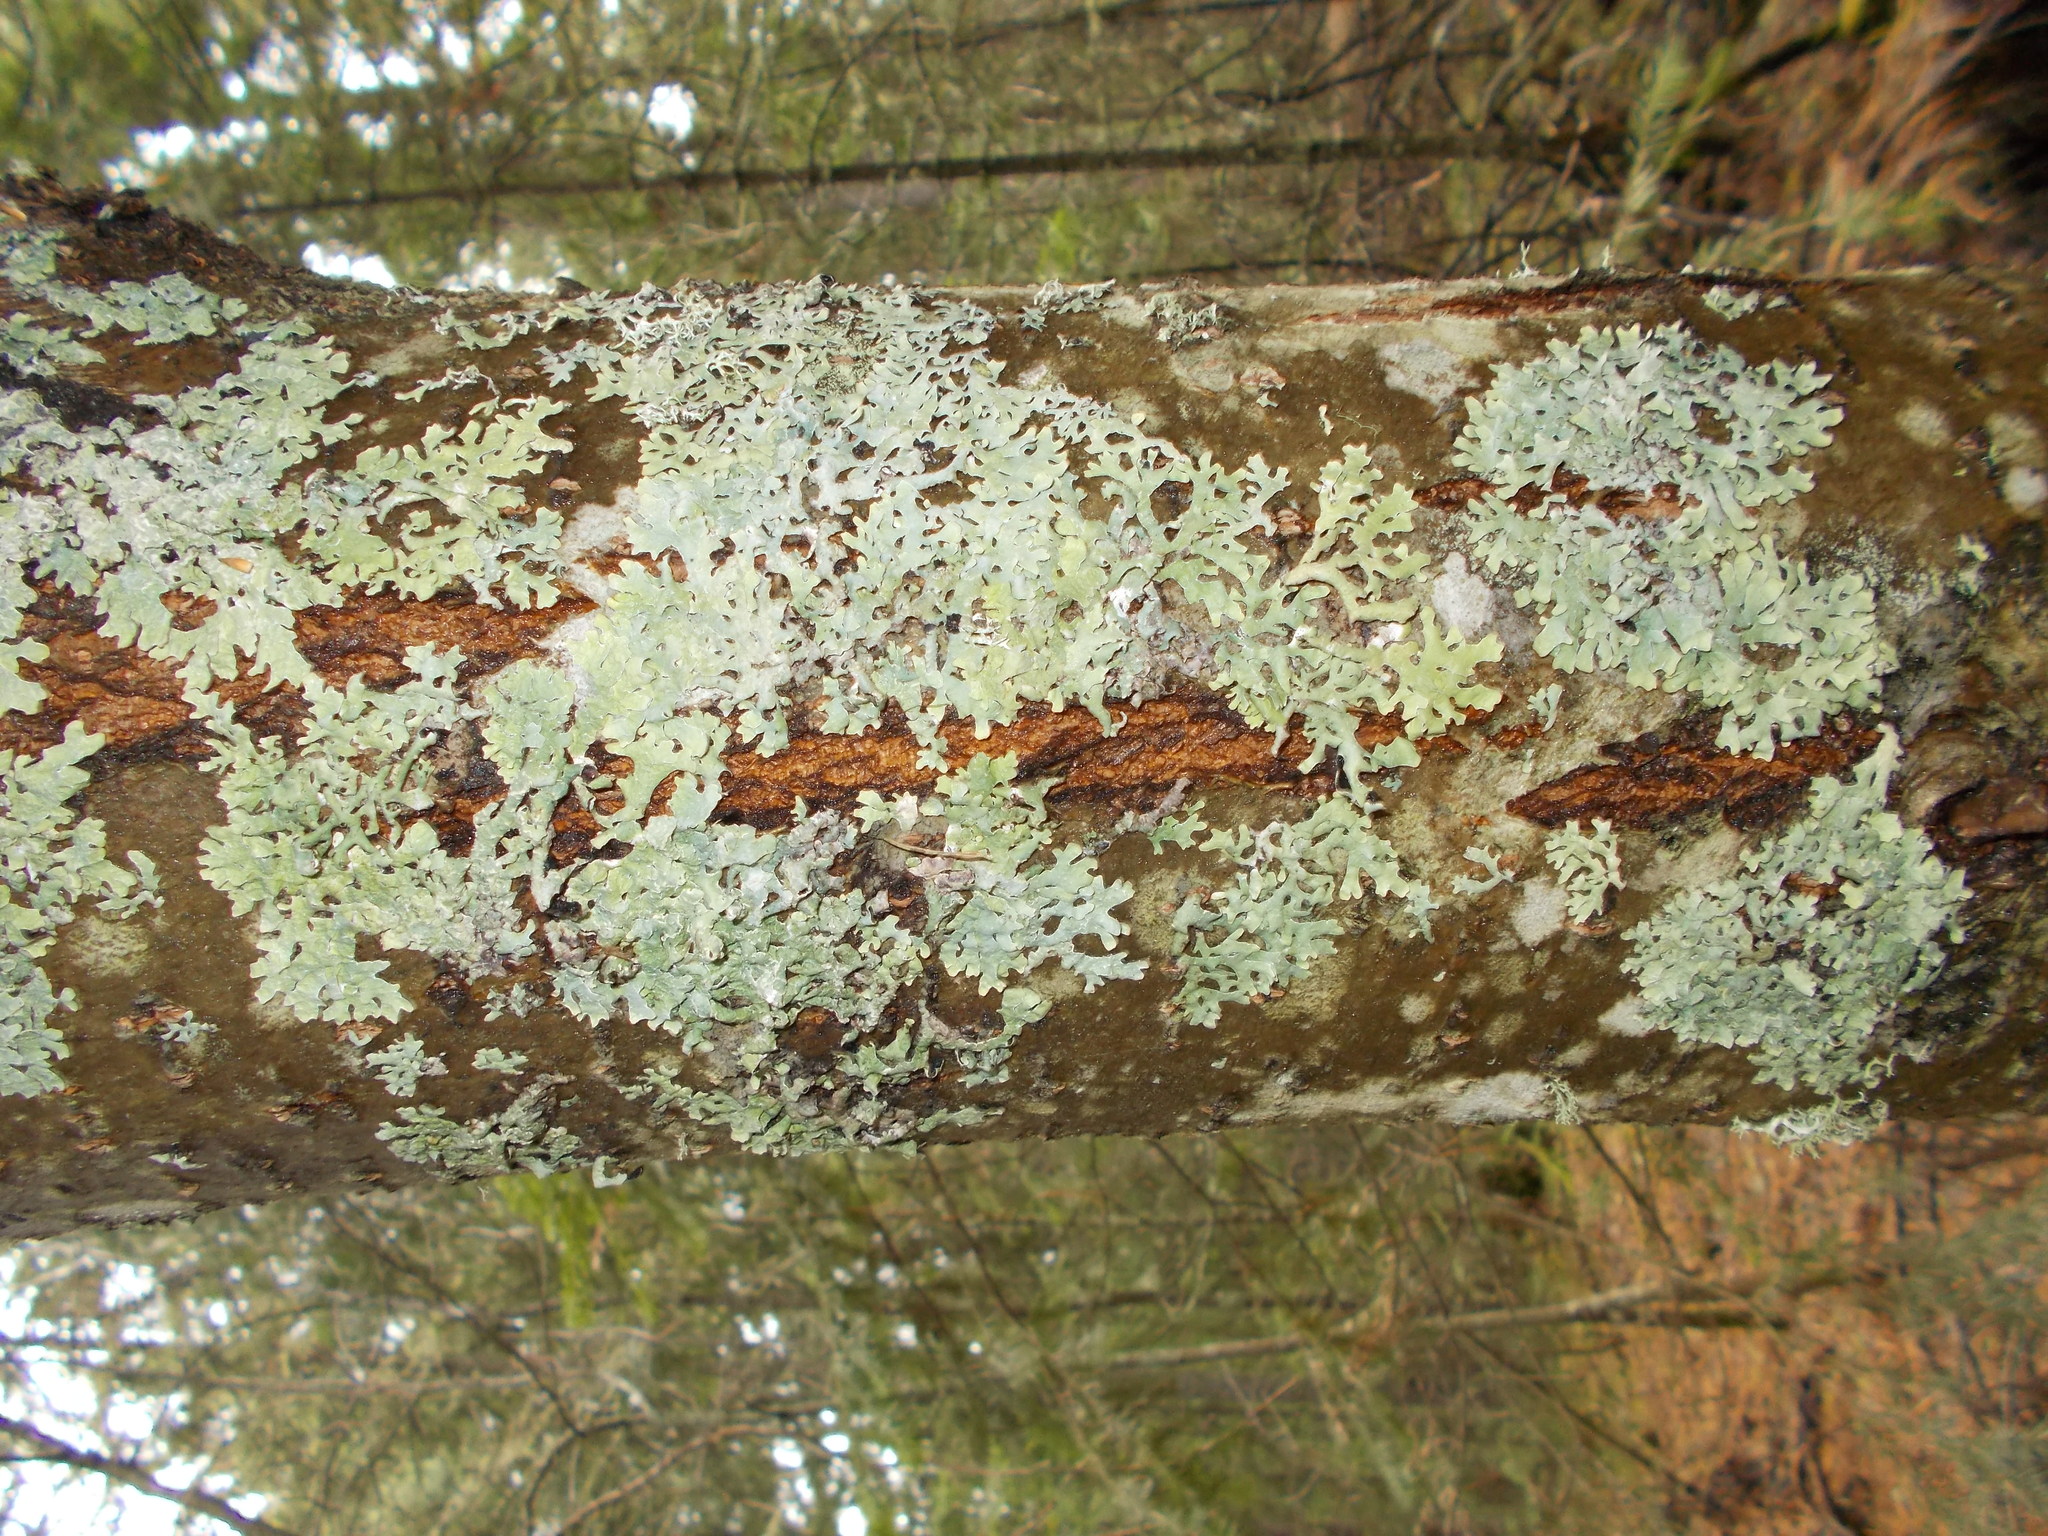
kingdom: Fungi
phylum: Ascomycota
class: Lecanoromycetes
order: Lecanorales
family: Parmeliaceae
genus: Parmelia
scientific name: Parmelia sulcata
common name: Netted shield lichen
